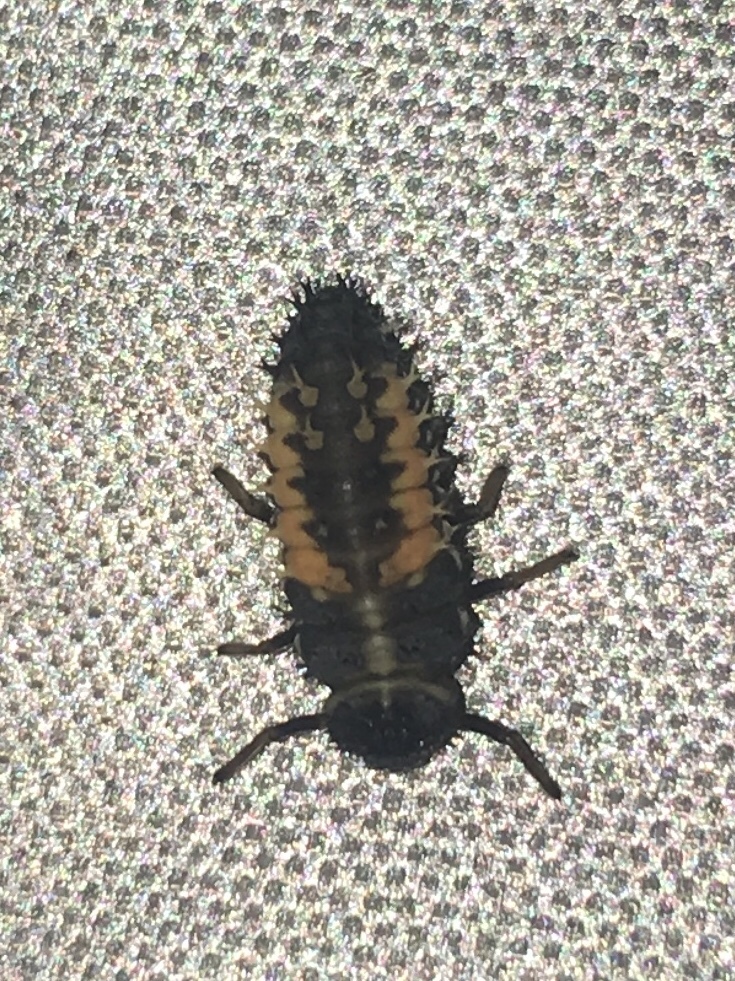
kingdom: Animalia
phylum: Arthropoda
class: Insecta
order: Coleoptera
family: Coccinellidae
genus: Harmonia
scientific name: Harmonia axyridis
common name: Harlequin ladybird
